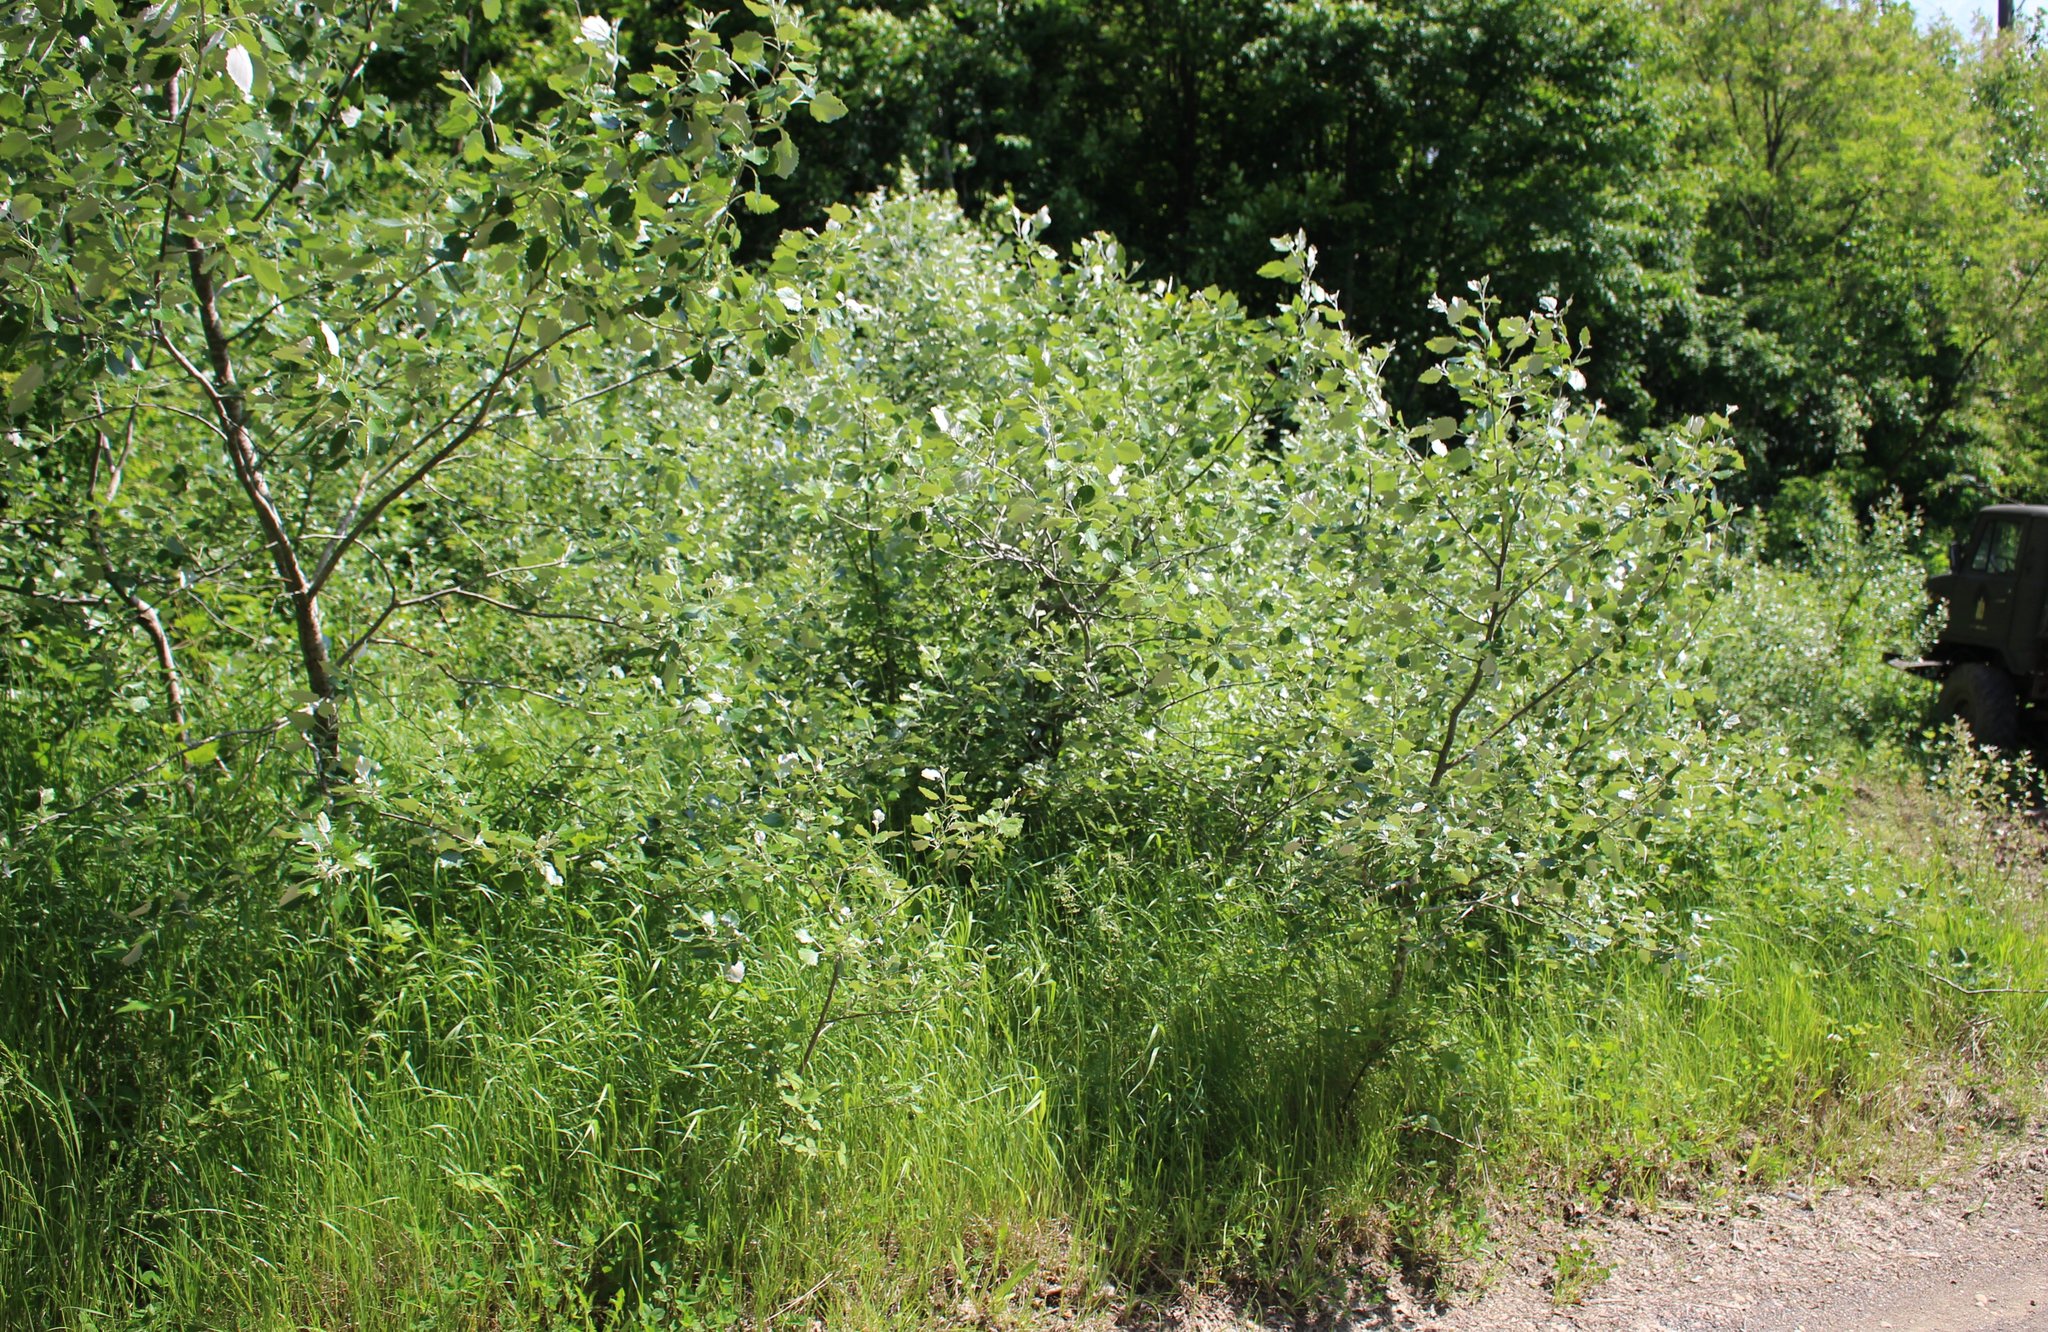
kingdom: Plantae
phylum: Tracheophyta
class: Magnoliopsida
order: Malpighiales
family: Salicaceae
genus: Populus
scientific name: Populus alba
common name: White poplar
